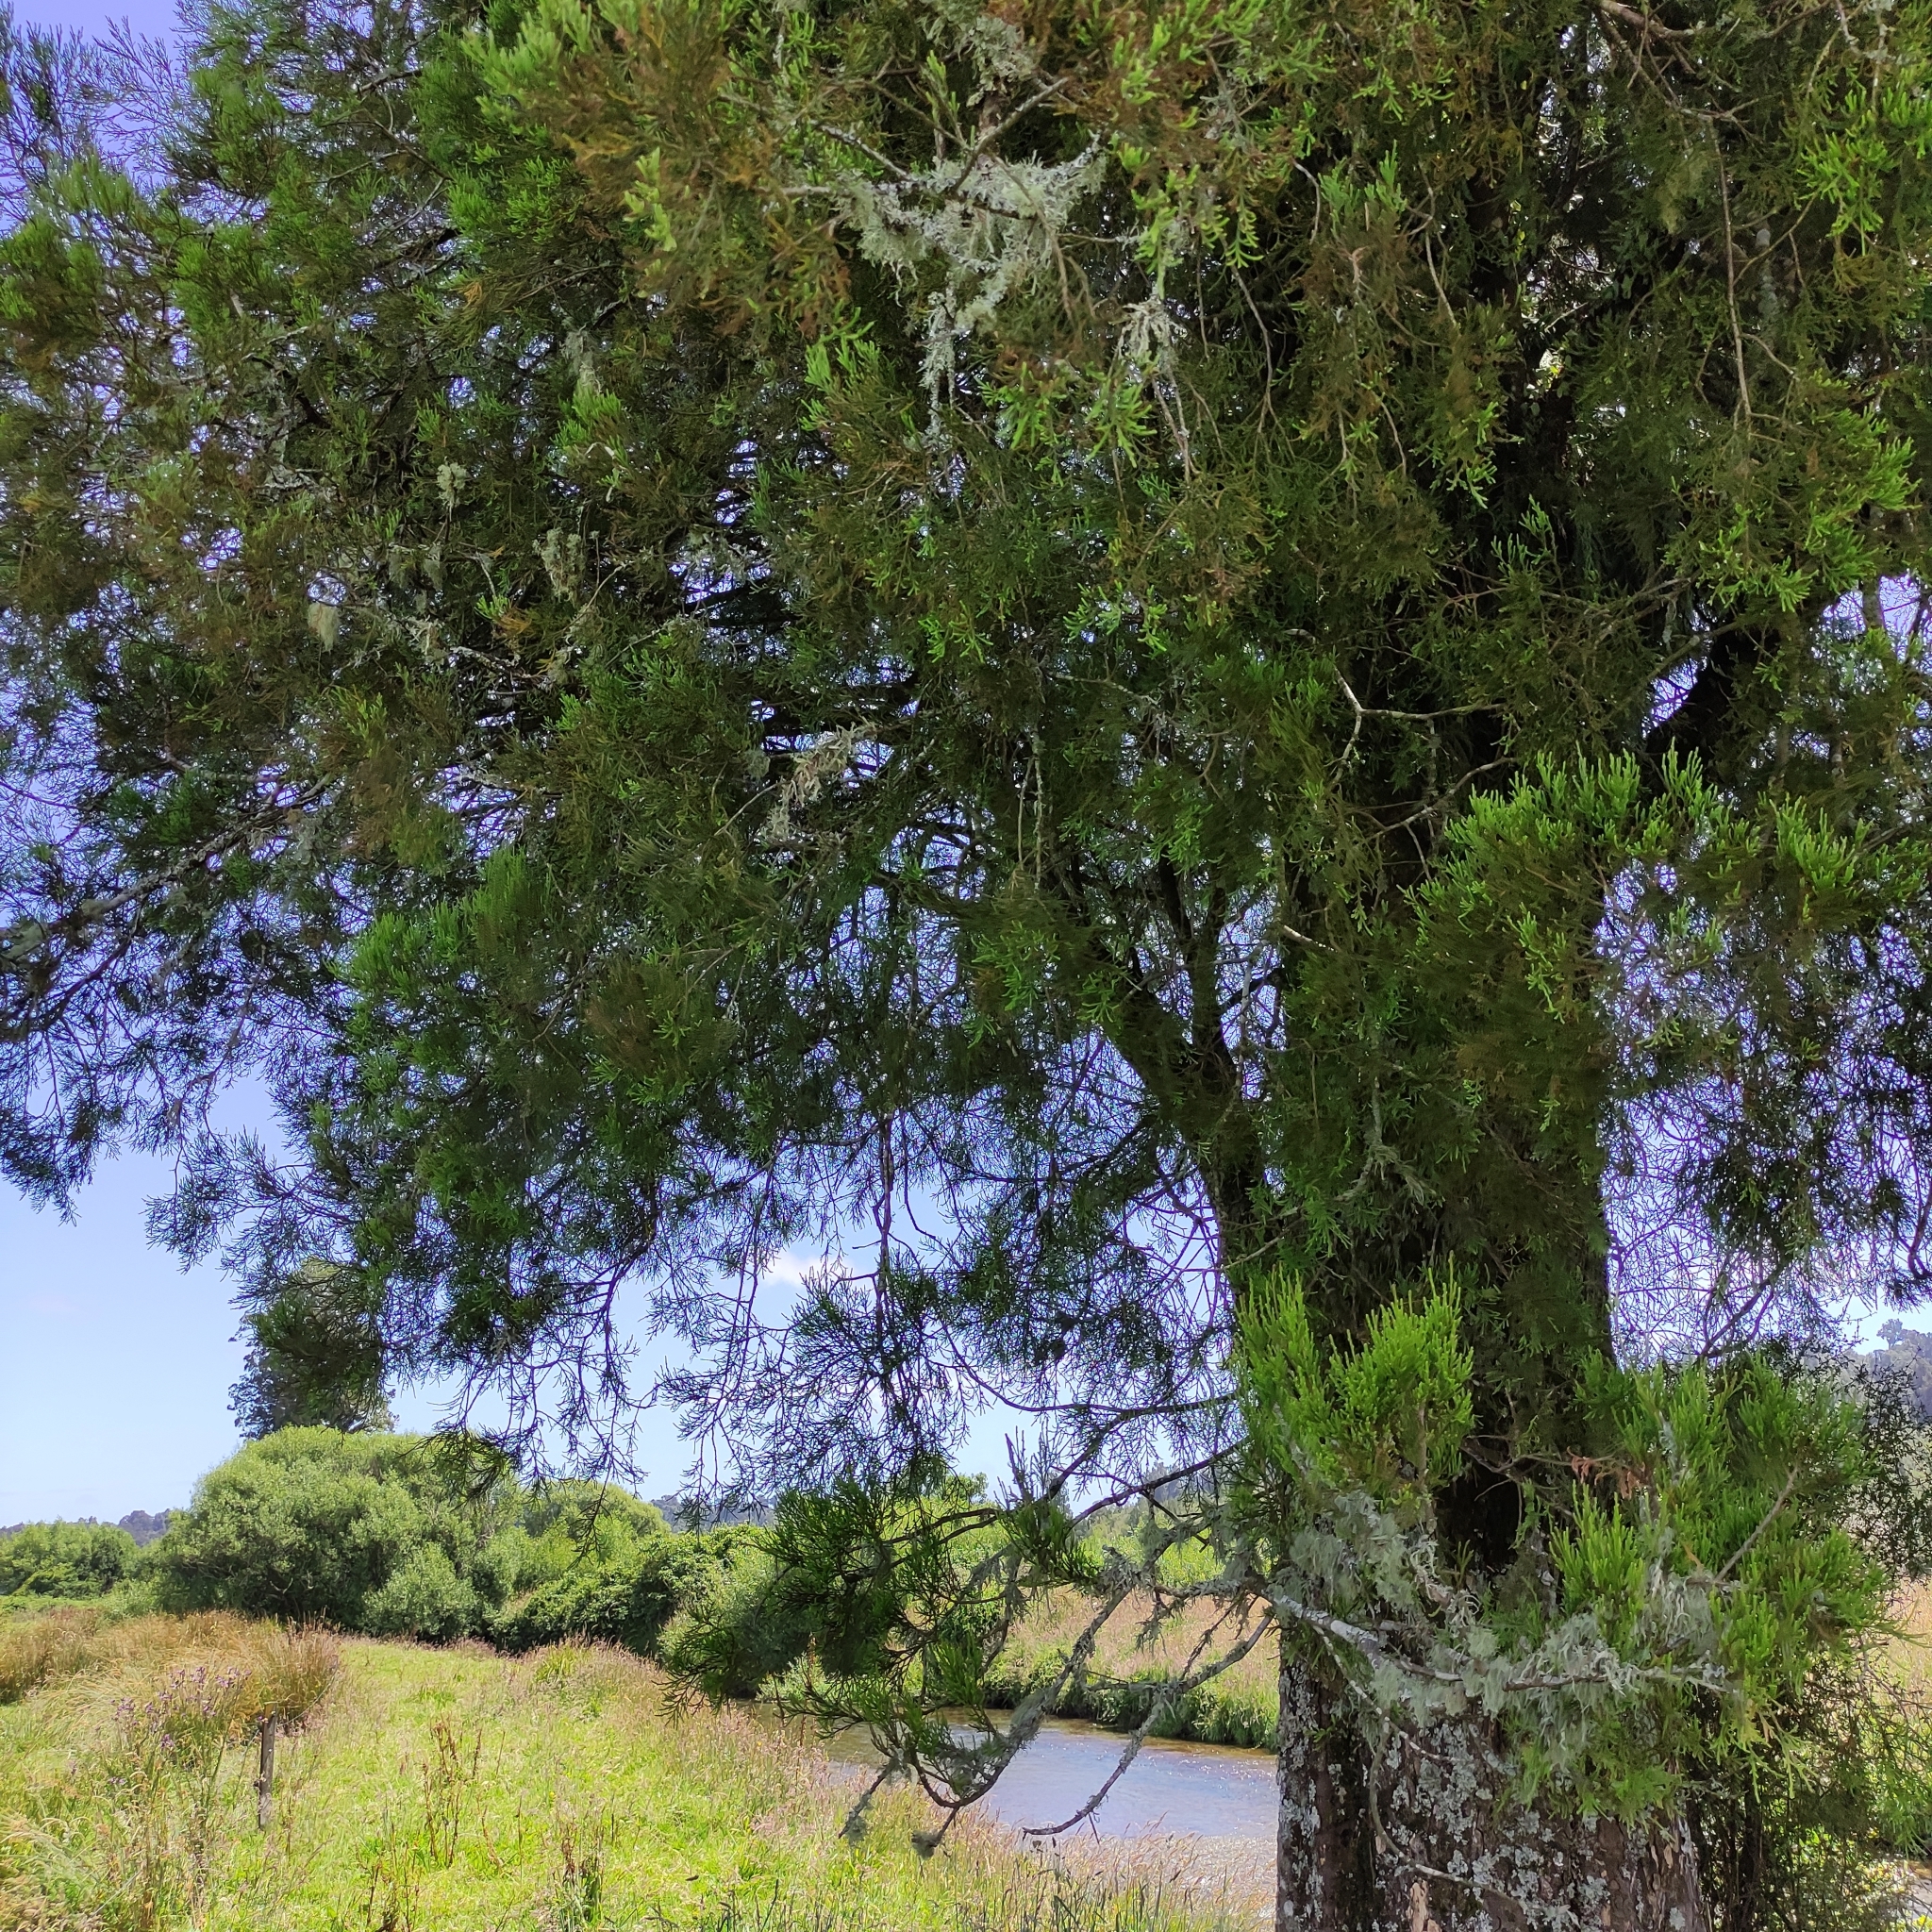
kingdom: Plantae
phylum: Tracheophyta
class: Pinopsida
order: Pinales
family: Podocarpaceae
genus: Dacrycarpus
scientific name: Dacrycarpus dacrydioides
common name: White pine
